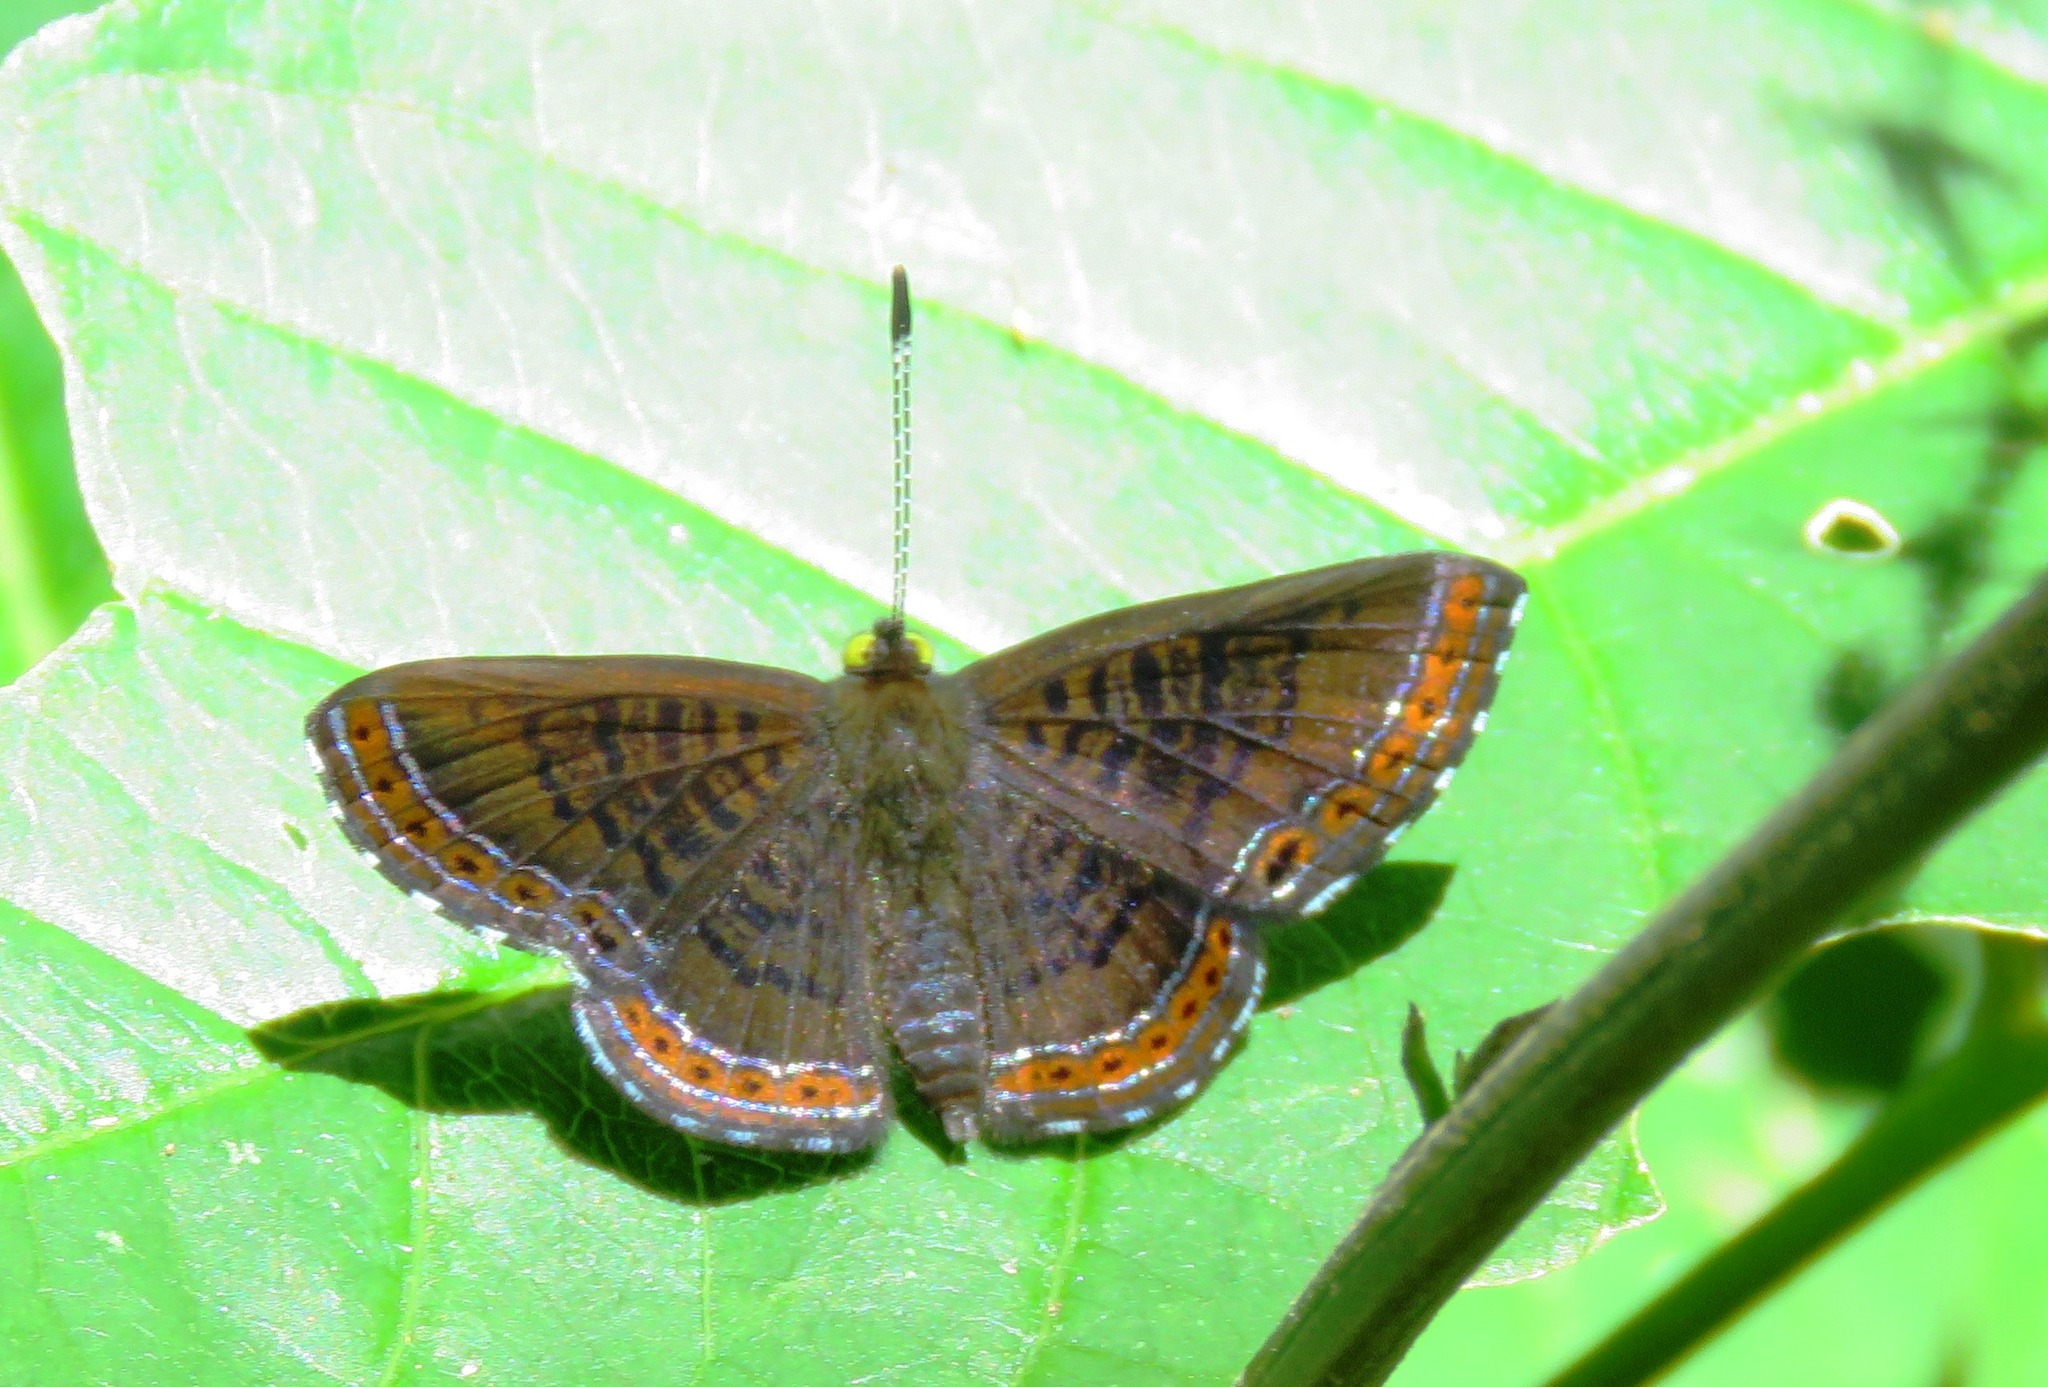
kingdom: Animalia
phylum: Arthropoda
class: Insecta
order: Lepidoptera
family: Riodinidae
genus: Detritivora
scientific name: Detritivora
